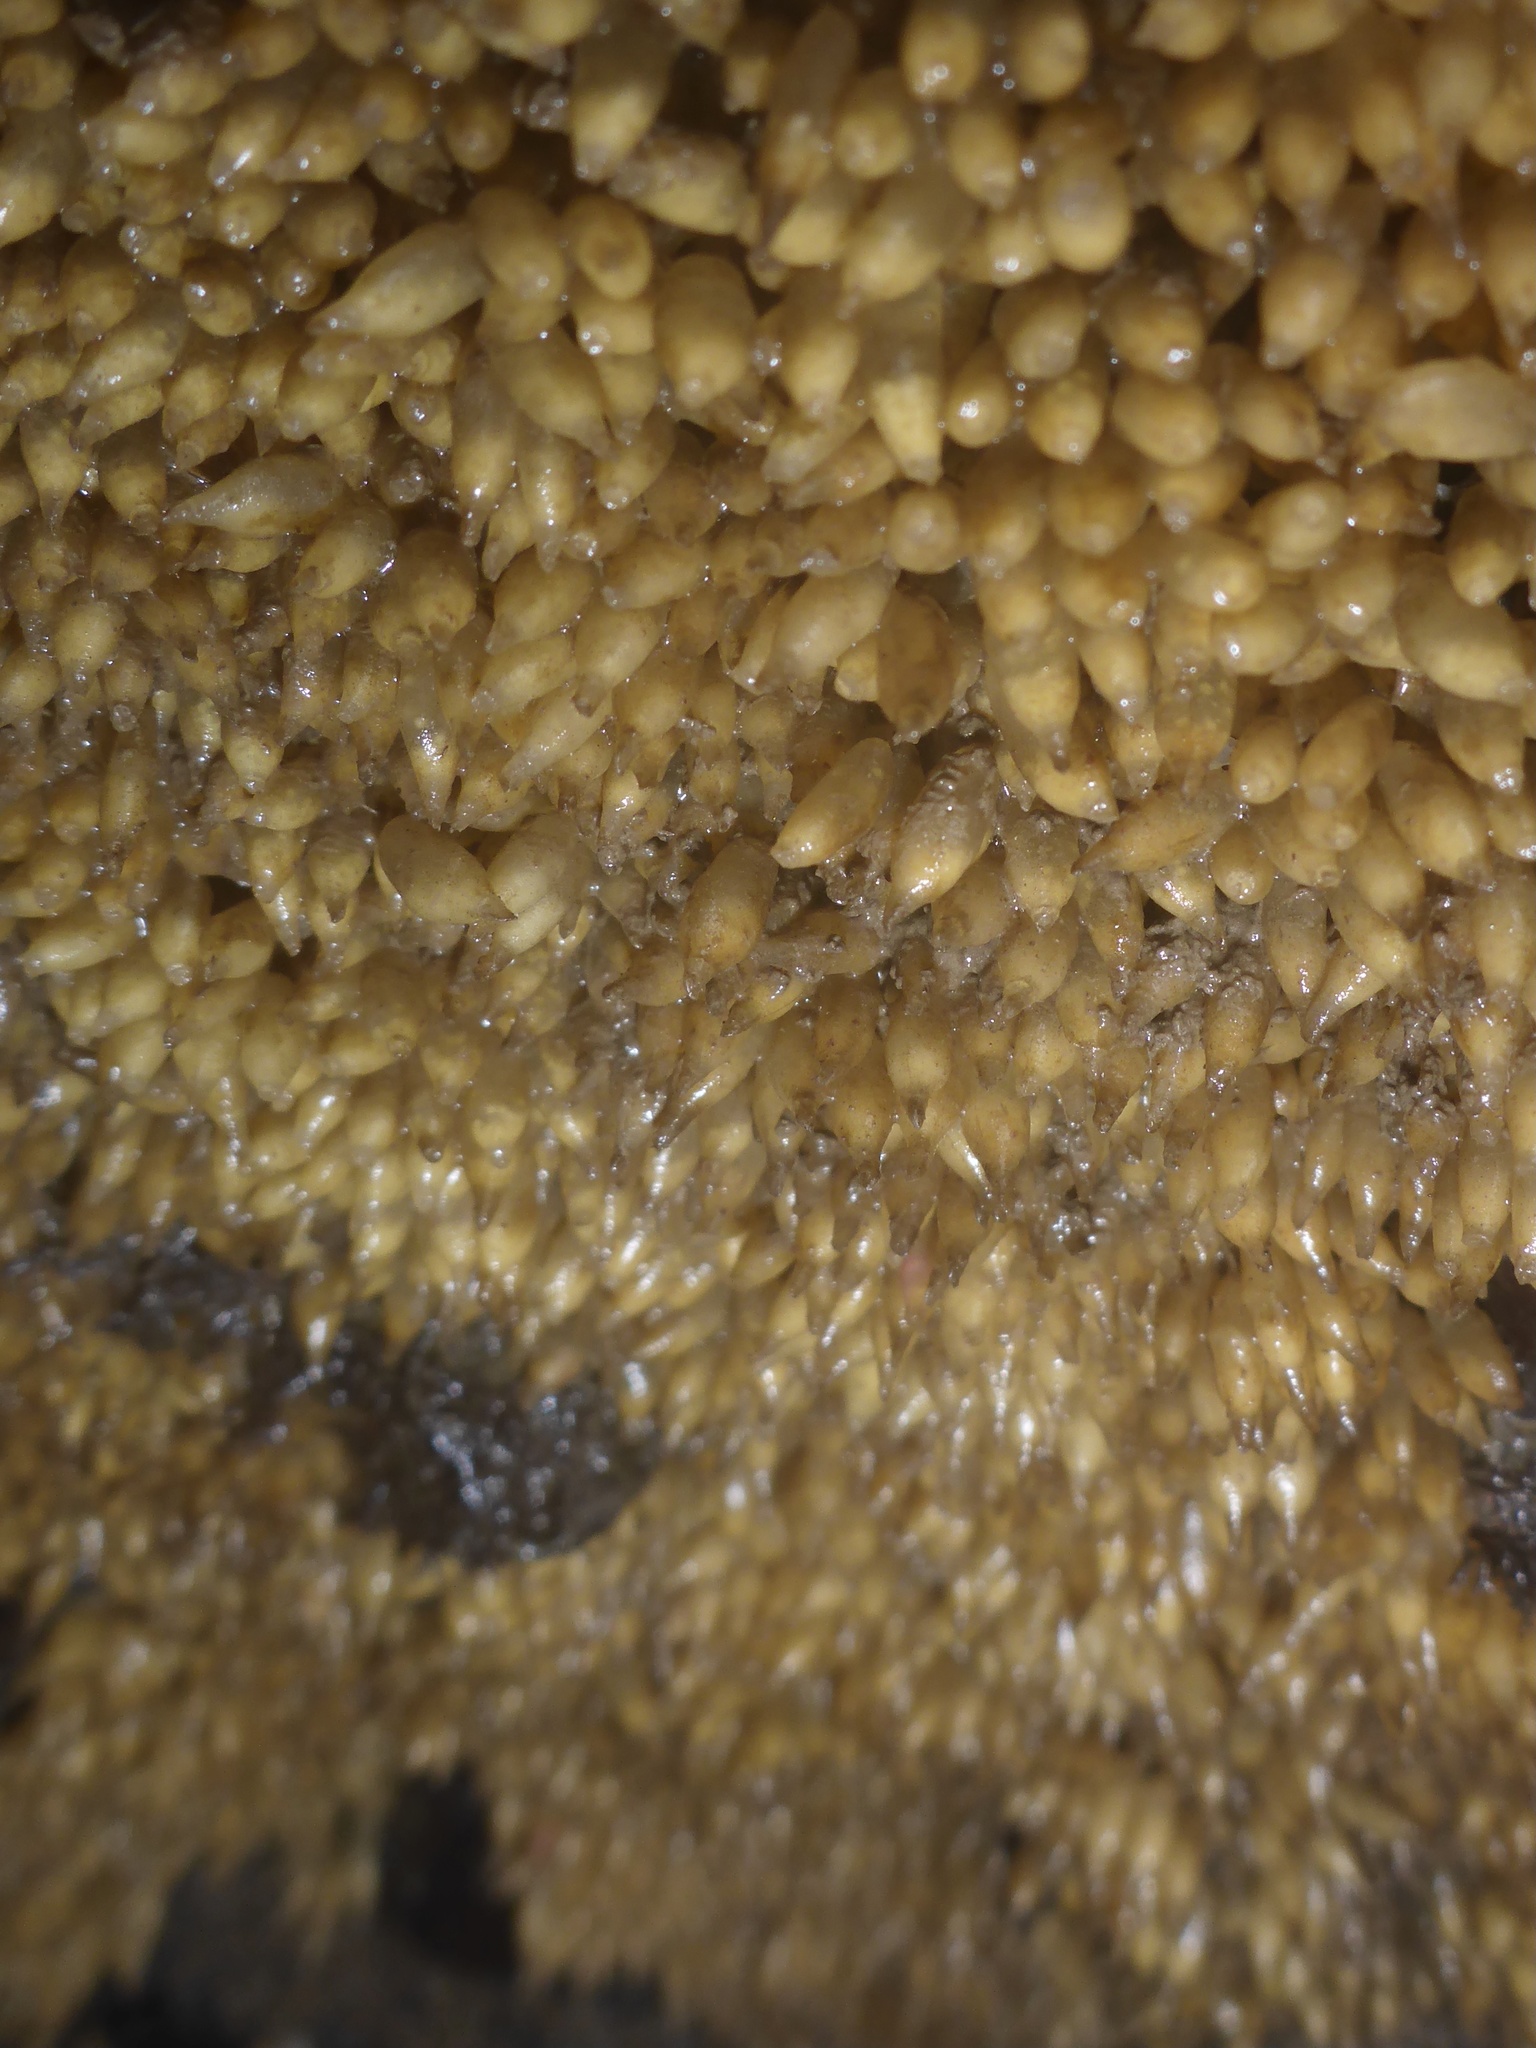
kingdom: Animalia
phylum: Mollusca
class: Gastropoda
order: Neogastropoda
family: Muricidae
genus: Ceratostoma
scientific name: Ceratostoma foliatum
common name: Foliate thorn purpura
